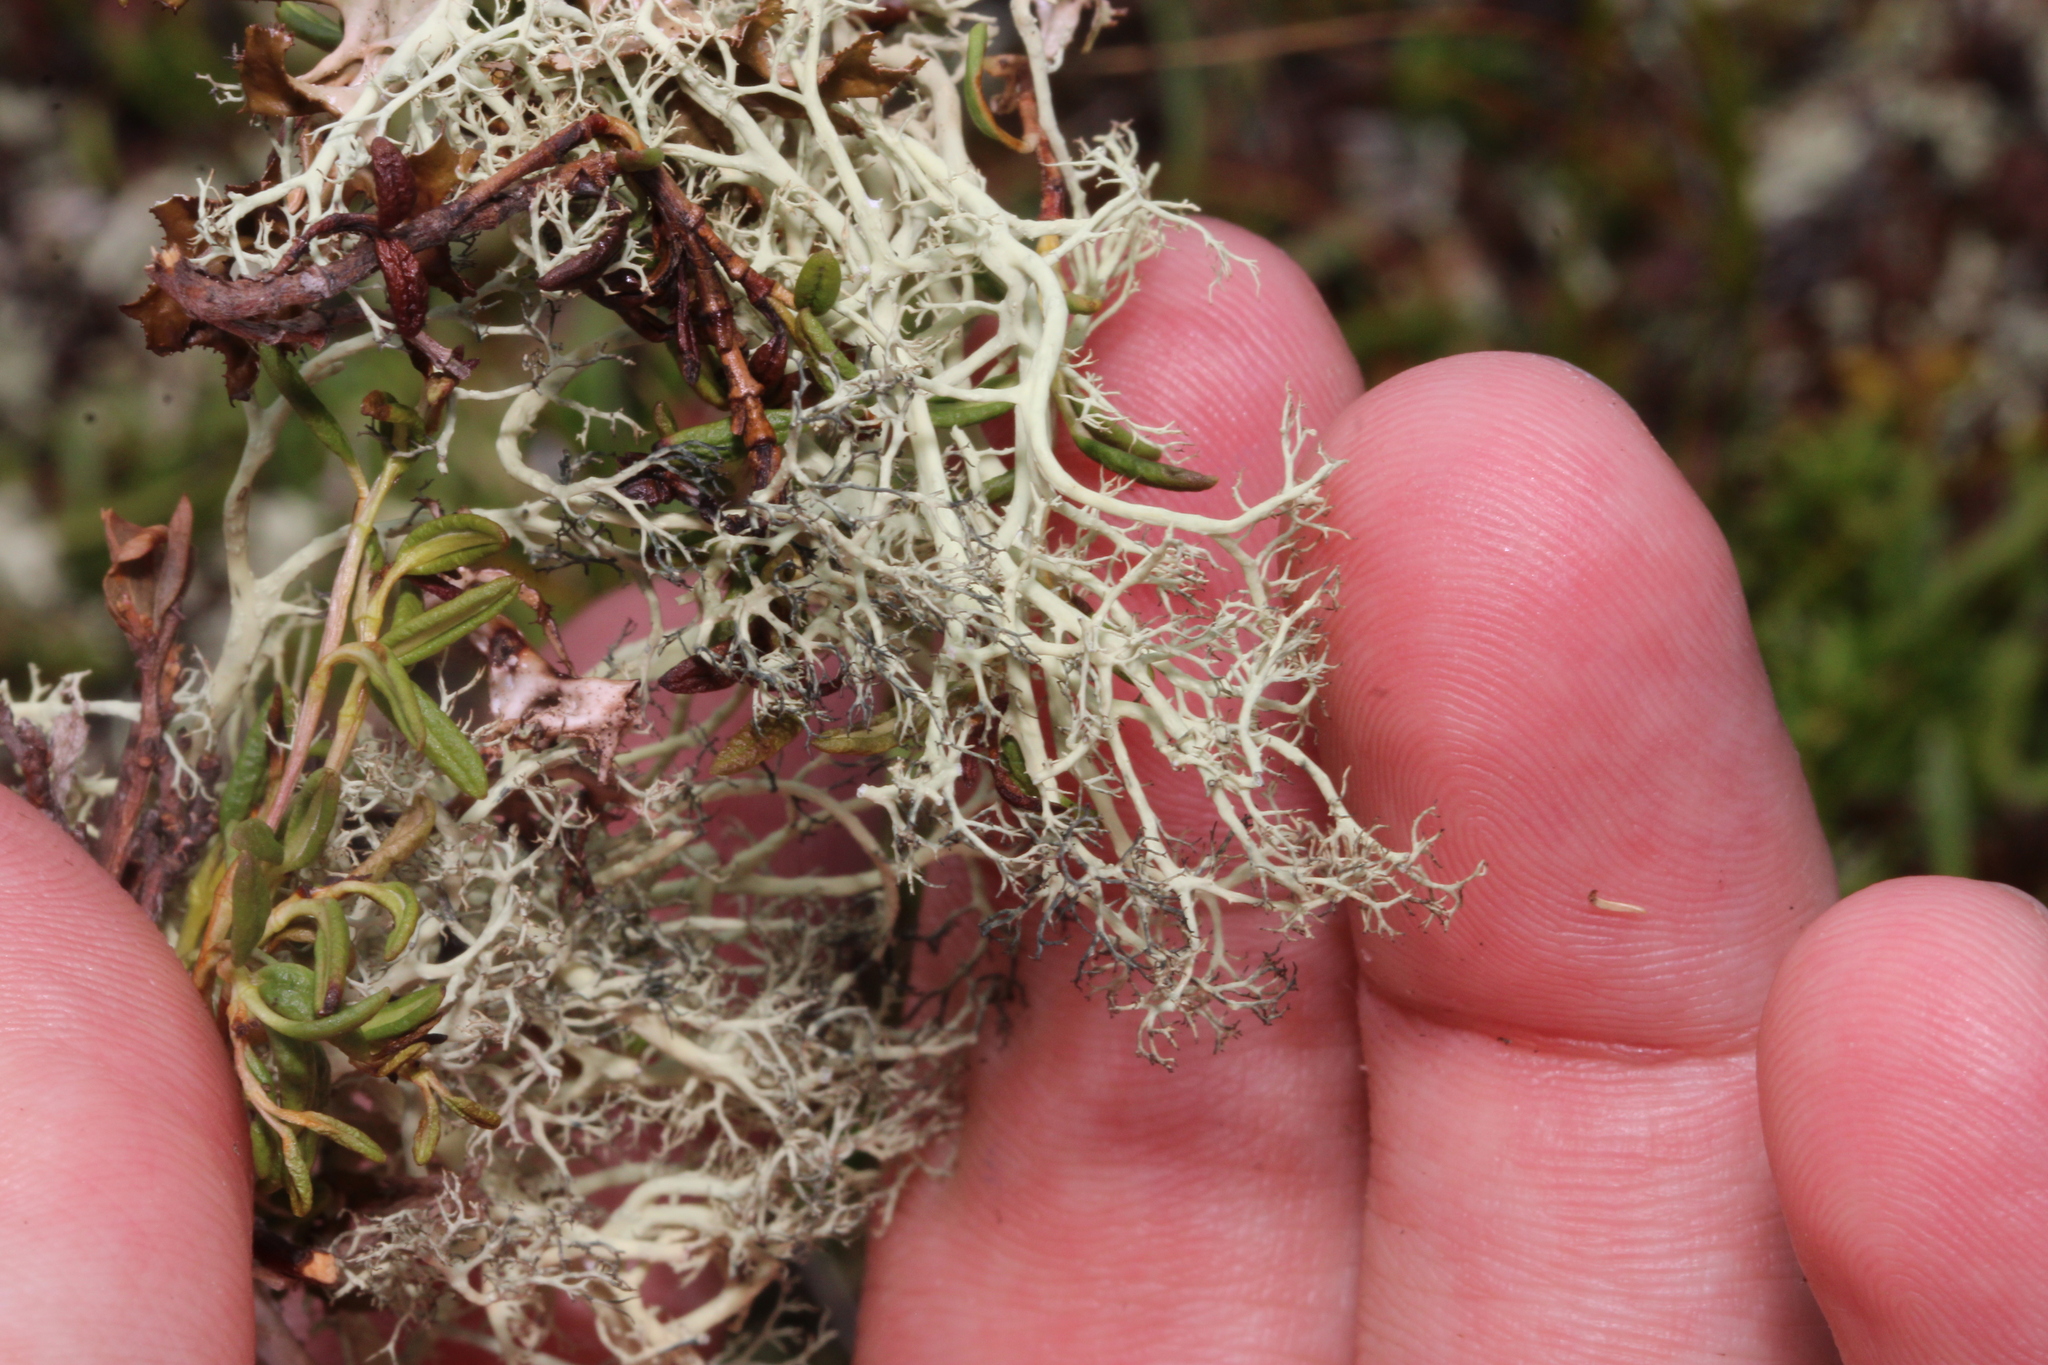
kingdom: Fungi
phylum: Ascomycota
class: Lecanoromycetes
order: Lecanorales
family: Parmeliaceae
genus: Alectoria
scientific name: Alectoria ochroleuca
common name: Alpine sulphur-tresses
